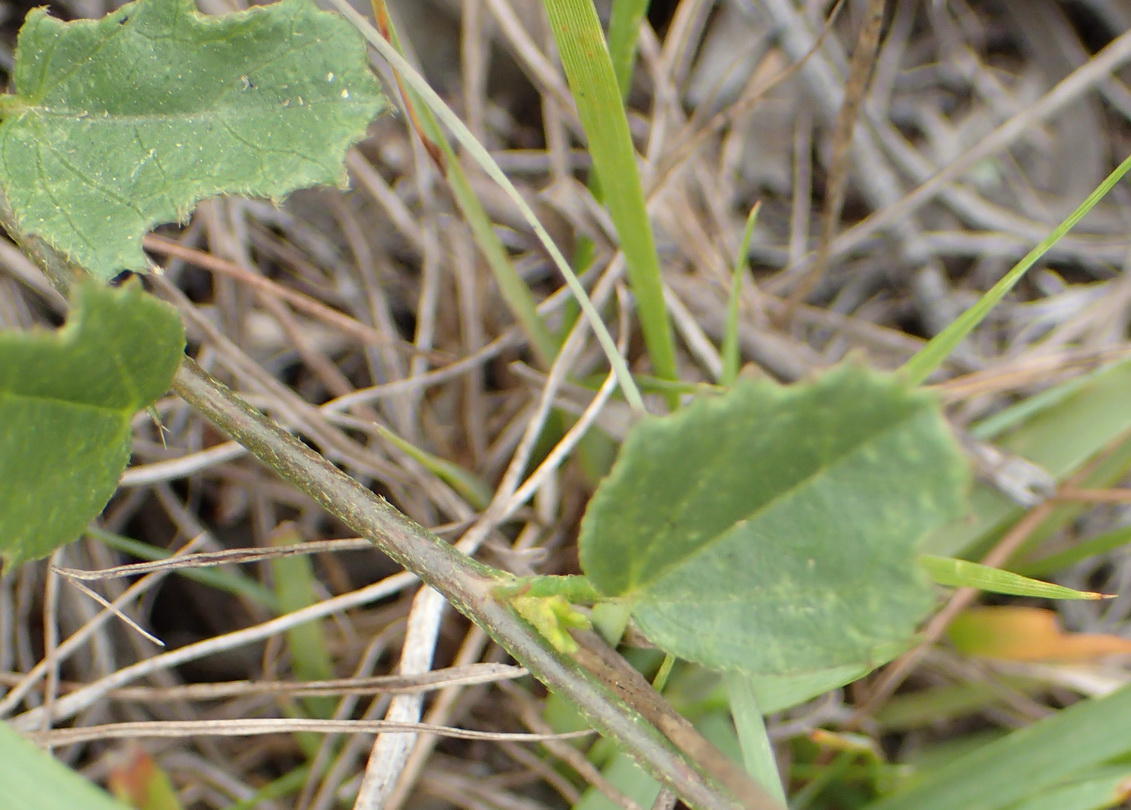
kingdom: Plantae
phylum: Tracheophyta
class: Magnoliopsida
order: Malvales
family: Malvaceae
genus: Hibiscus
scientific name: Hibiscus pusillus
